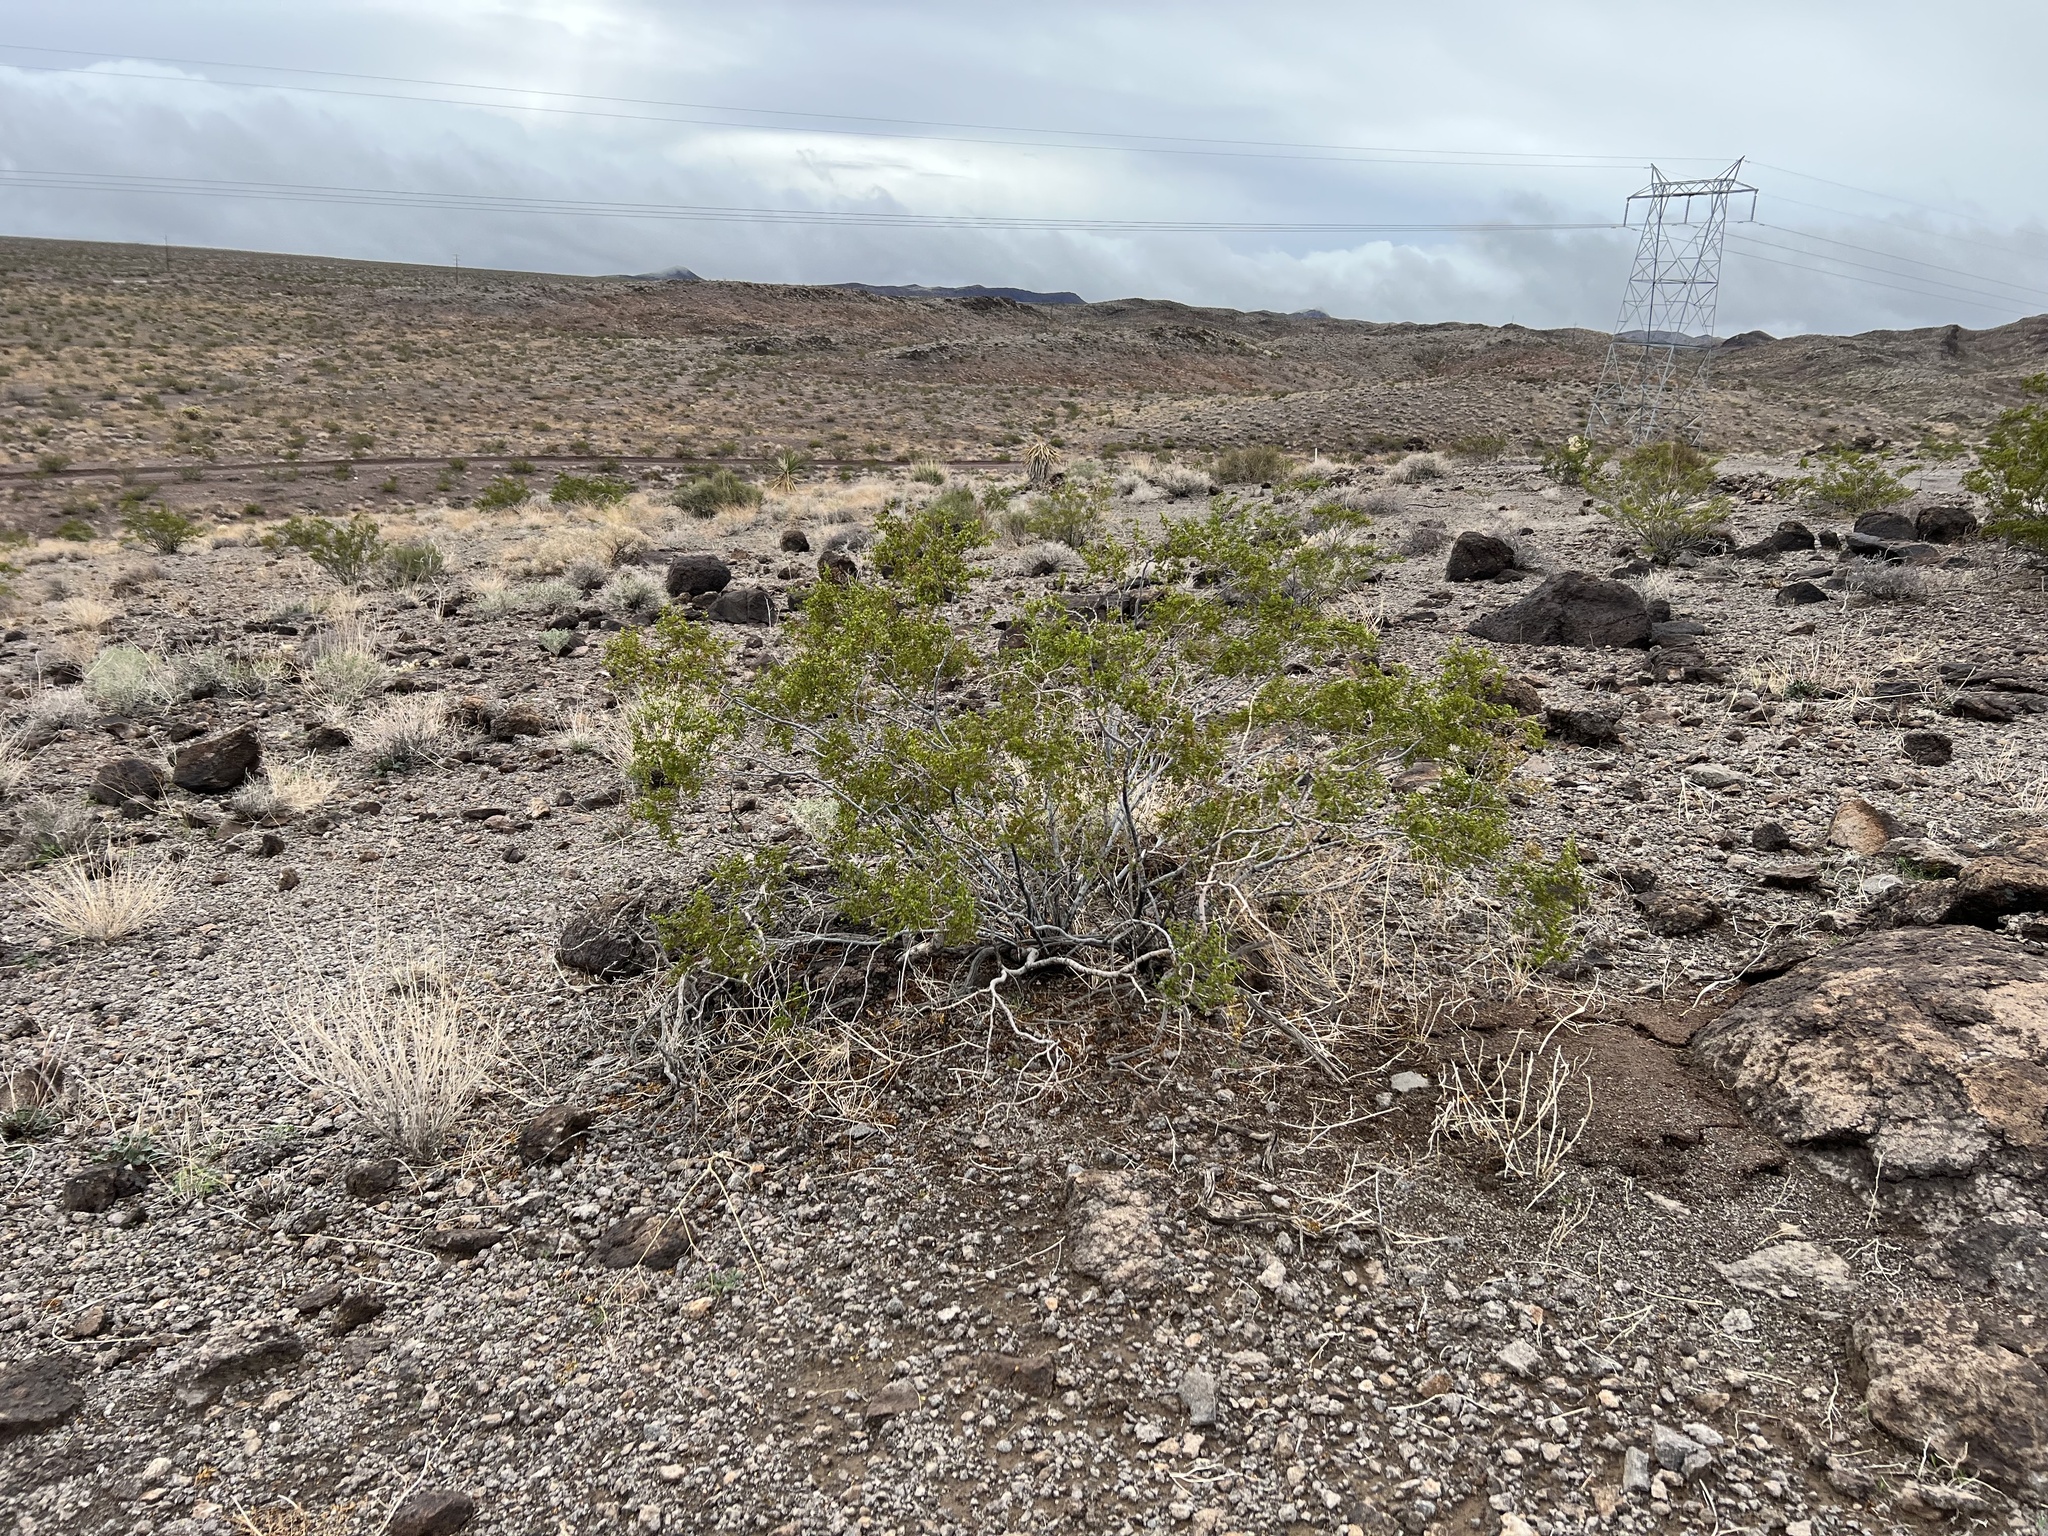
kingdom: Plantae
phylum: Tracheophyta
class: Magnoliopsida
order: Zygophyllales
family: Zygophyllaceae
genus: Larrea
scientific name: Larrea tridentata
